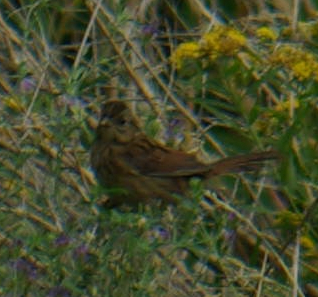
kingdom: Animalia
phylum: Chordata
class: Aves
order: Passeriformes
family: Passerellidae
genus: Melospiza
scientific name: Melospiza georgiana
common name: Swamp sparrow
